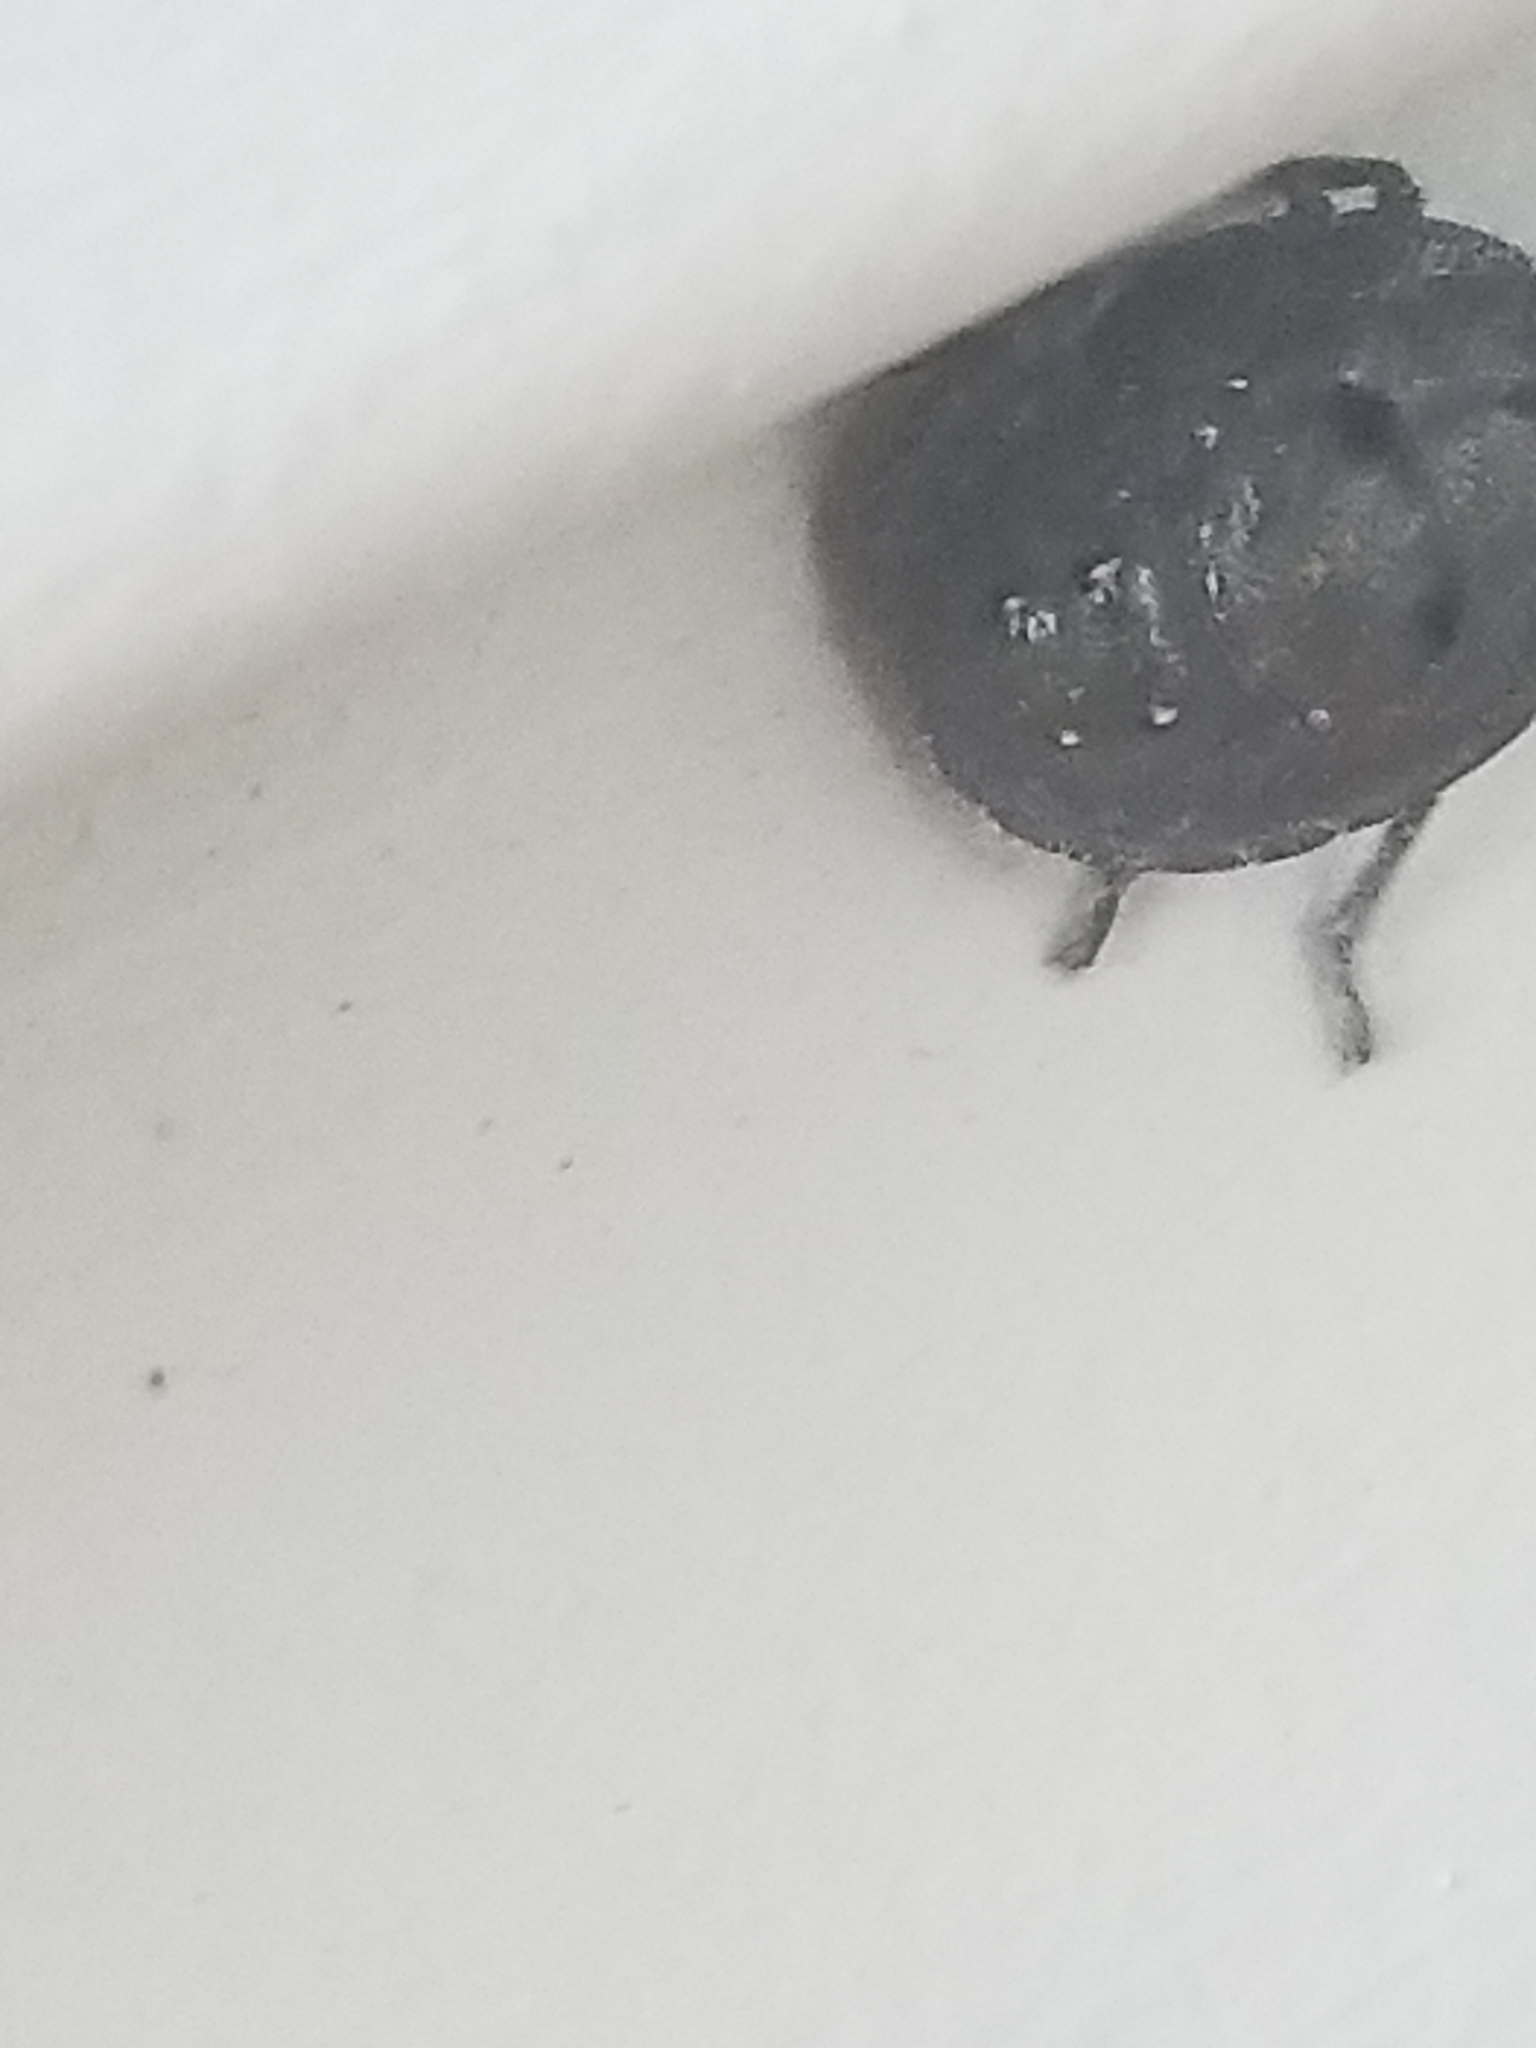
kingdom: Animalia
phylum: Arthropoda
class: Insecta
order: Hemiptera
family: Scutelleridae
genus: Tetyra
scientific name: Tetyra bipunctata
